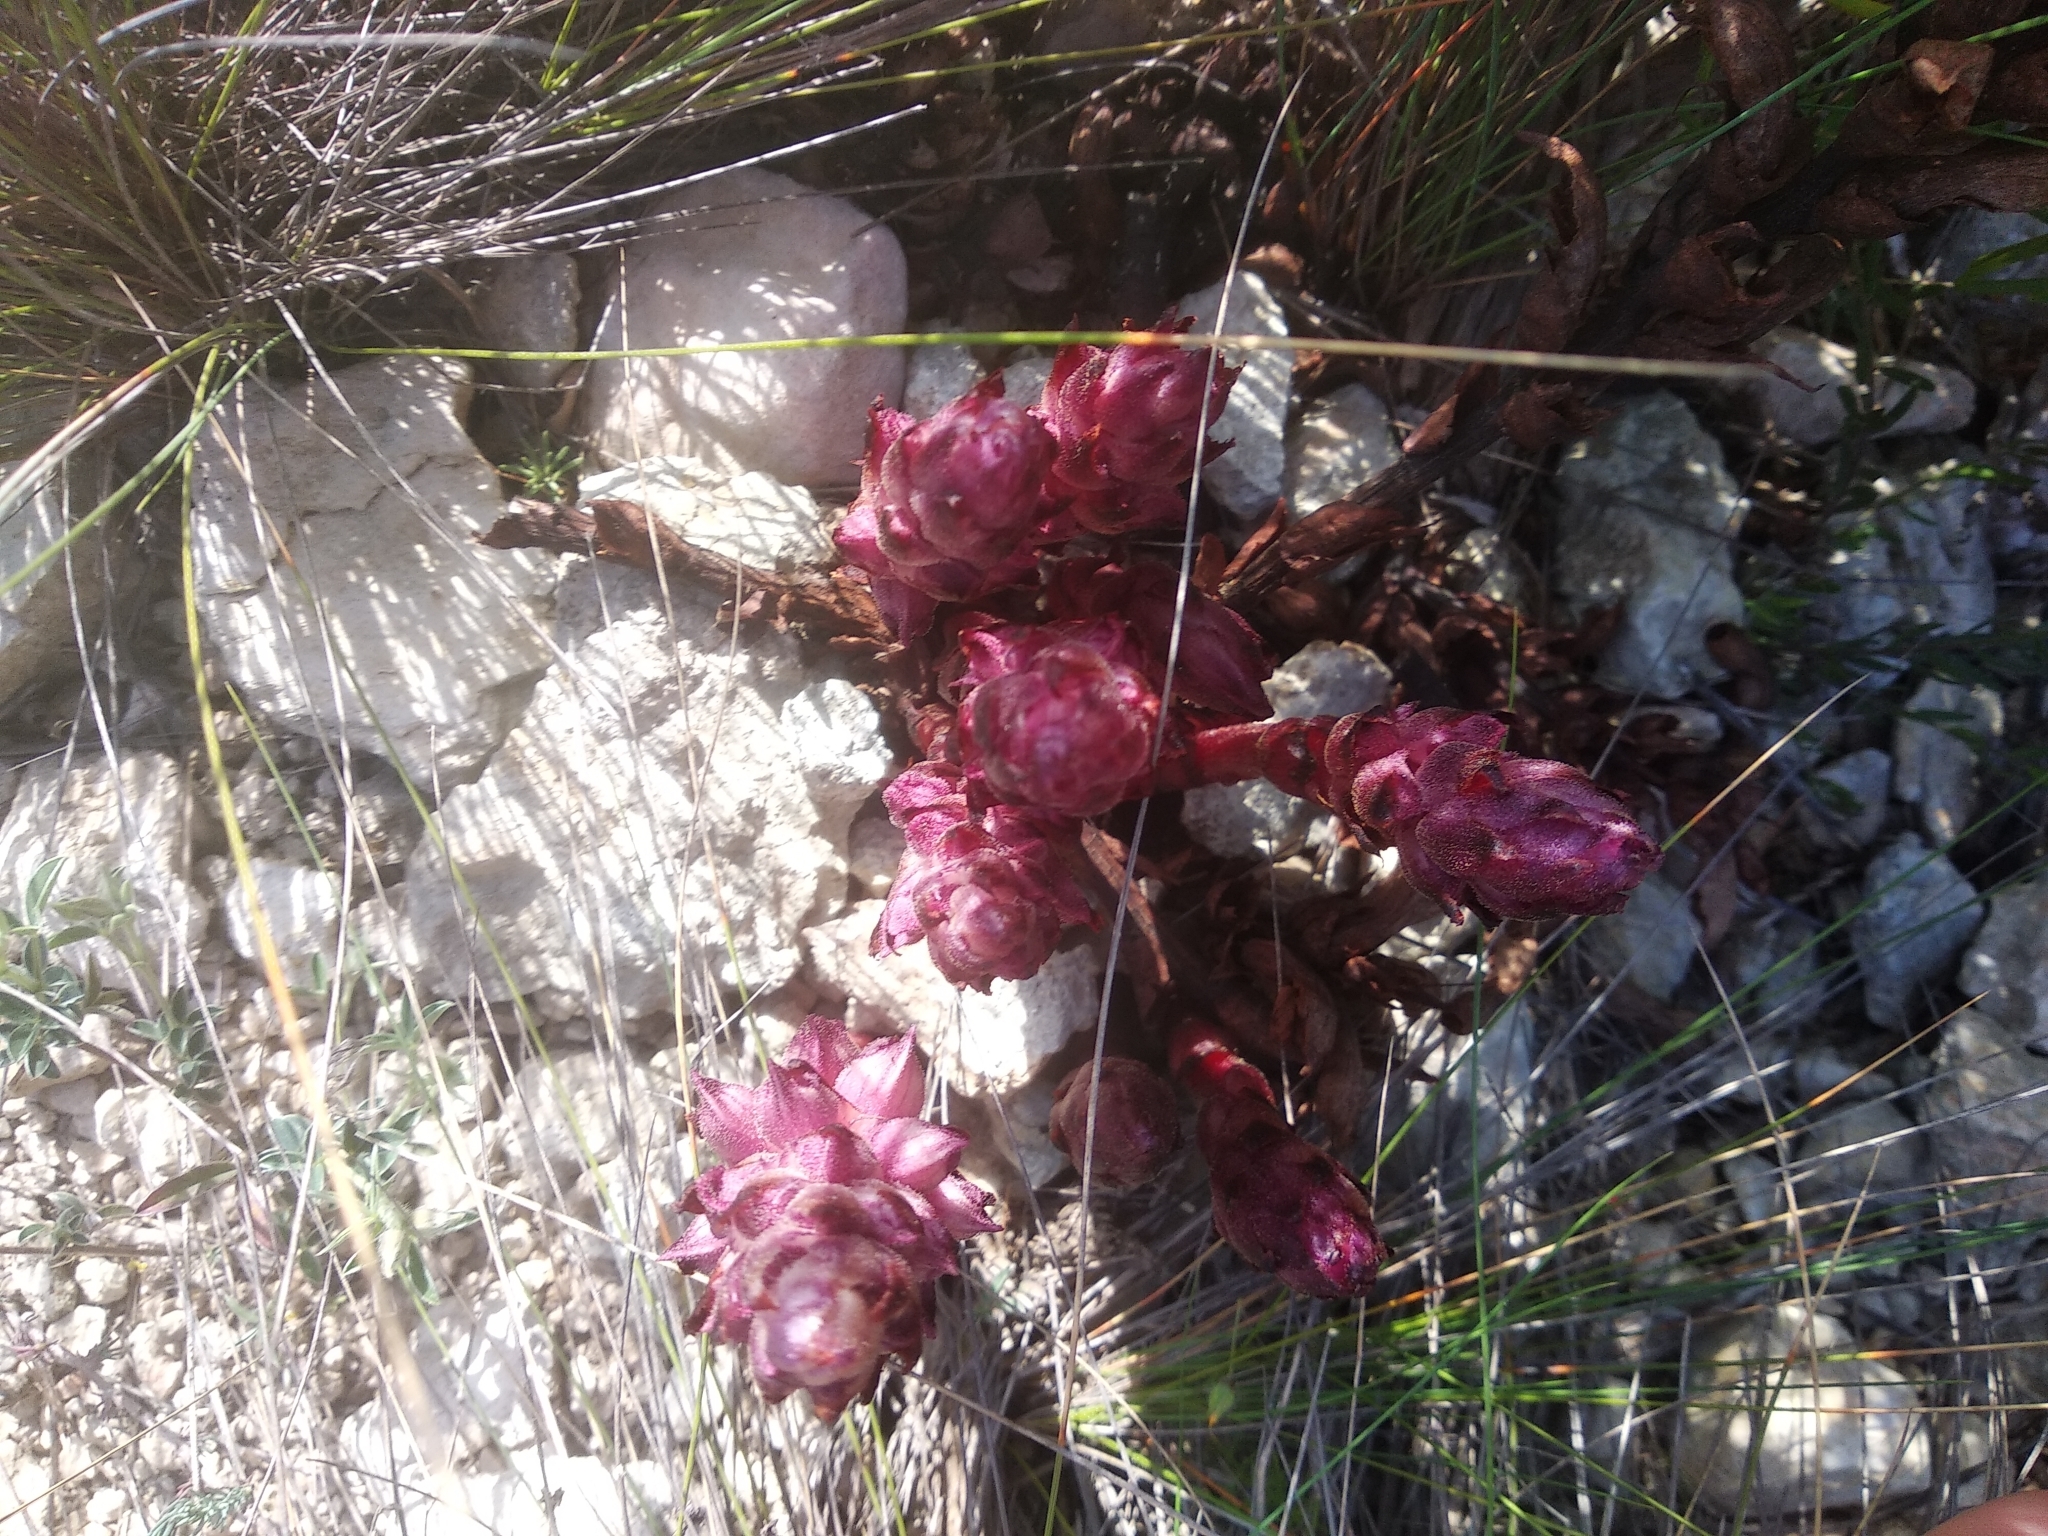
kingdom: Plantae
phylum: Tracheophyta
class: Magnoliopsida
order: Lamiales
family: Orobanchaceae
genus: Boulardia
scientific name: Boulardia latisquama
